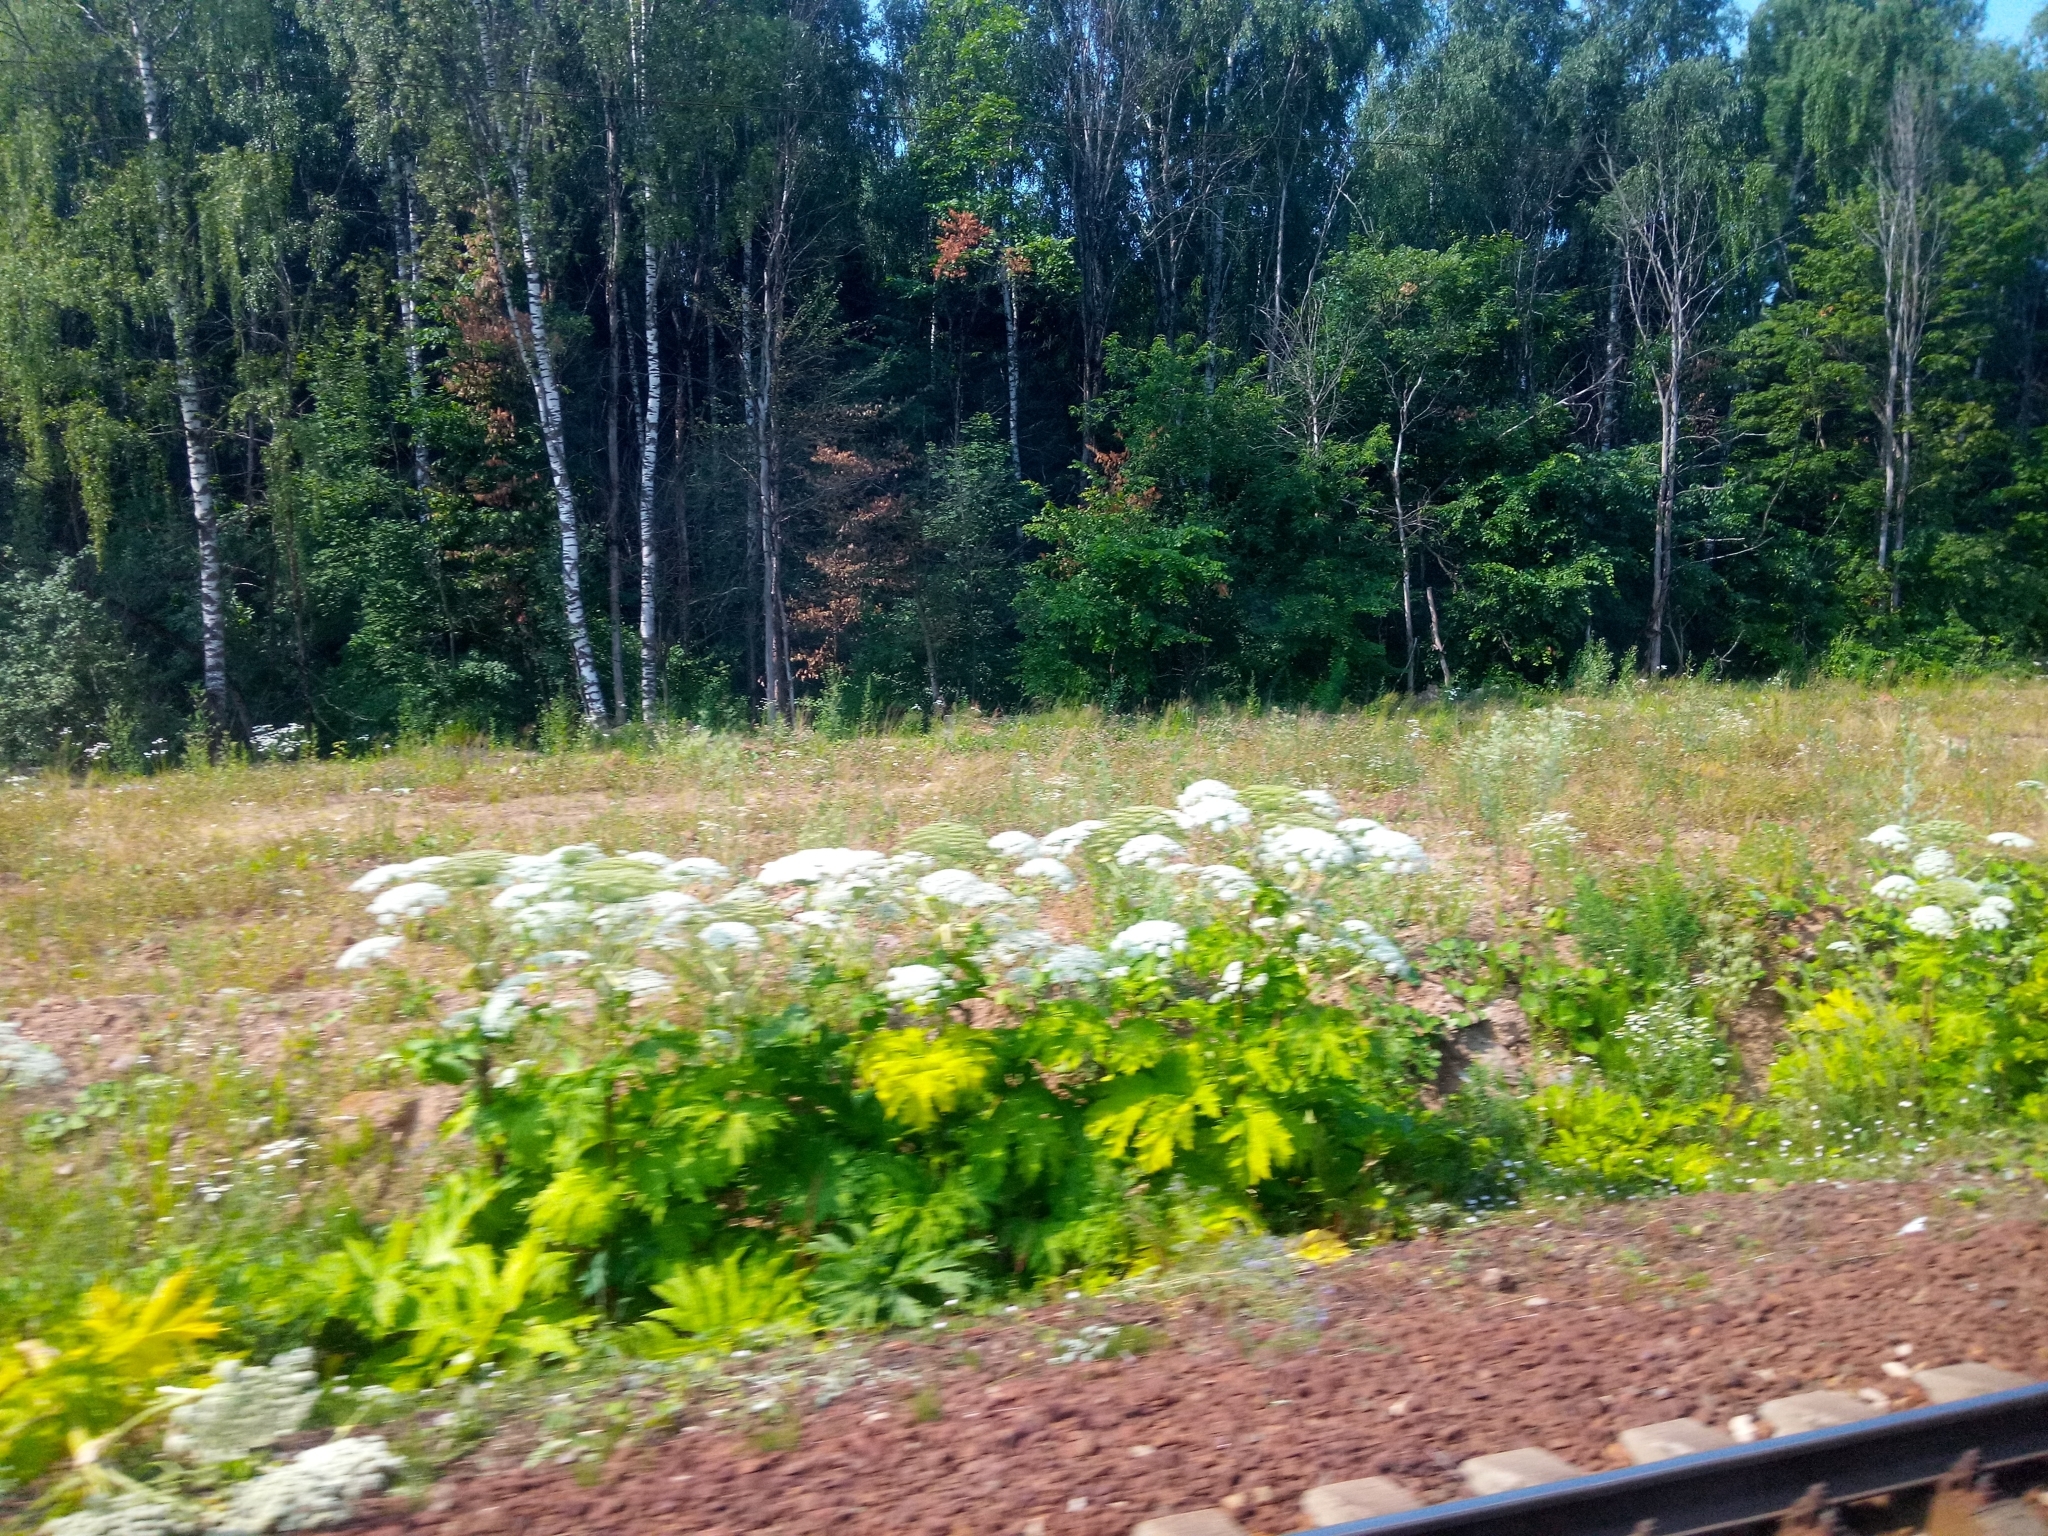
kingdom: Plantae
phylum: Tracheophyta
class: Magnoliopsida
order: Apiales
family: Apiaceae
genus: Heracleum
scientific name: Heracleum sosnowskyi
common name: Sosnowsky's hogweed
